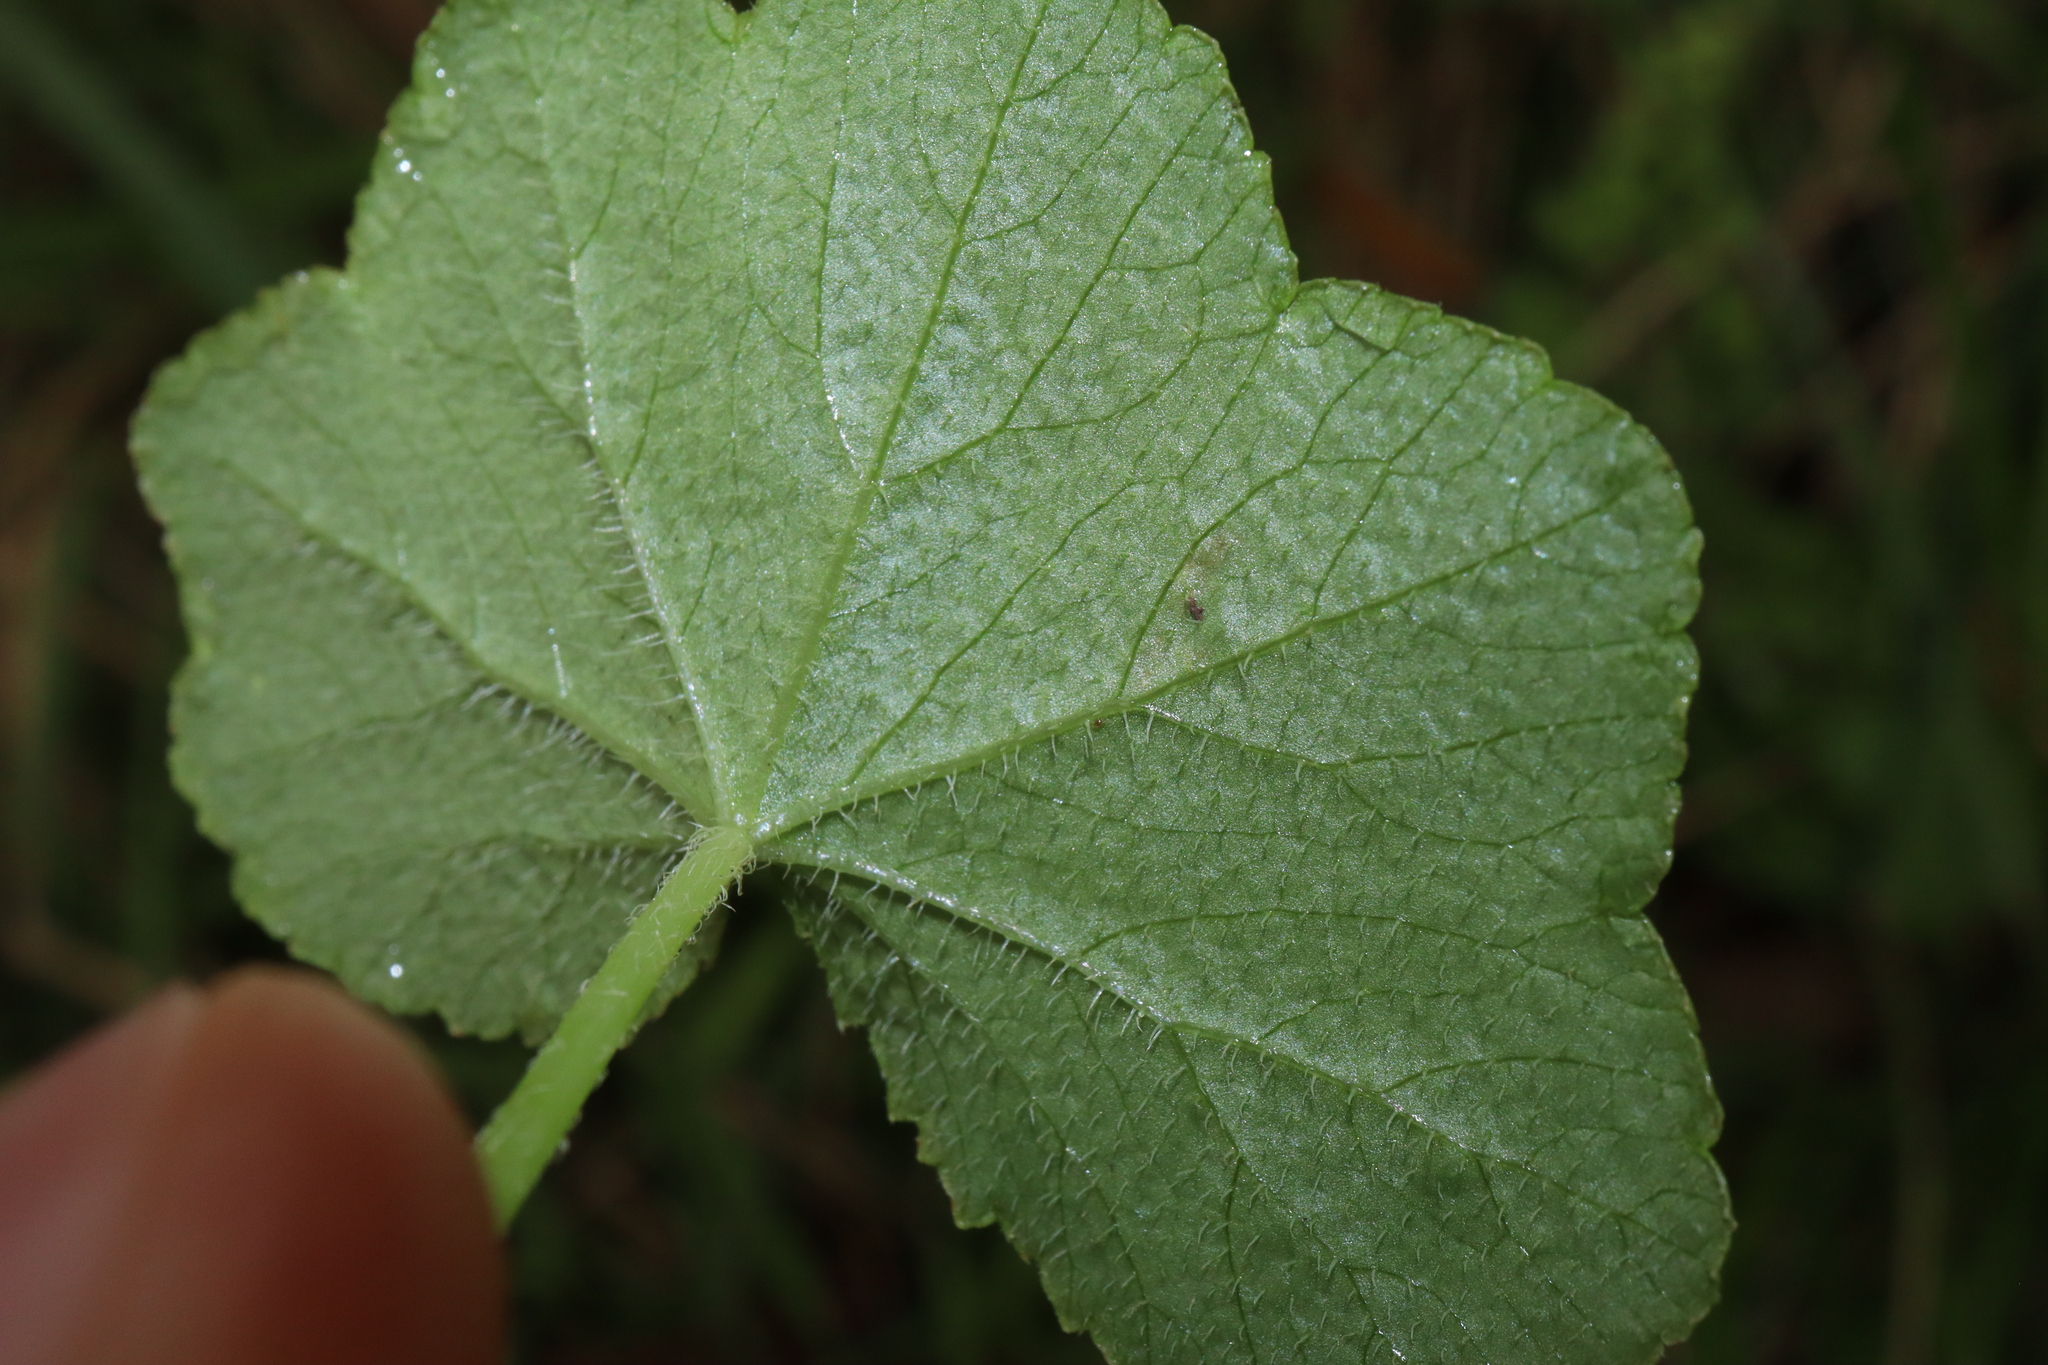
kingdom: Plantae
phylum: Tracheophyta
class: Magnoliopsida
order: Apiales
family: Araliaceae
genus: Hydrocotyle
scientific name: Hydrocotyle hirta
